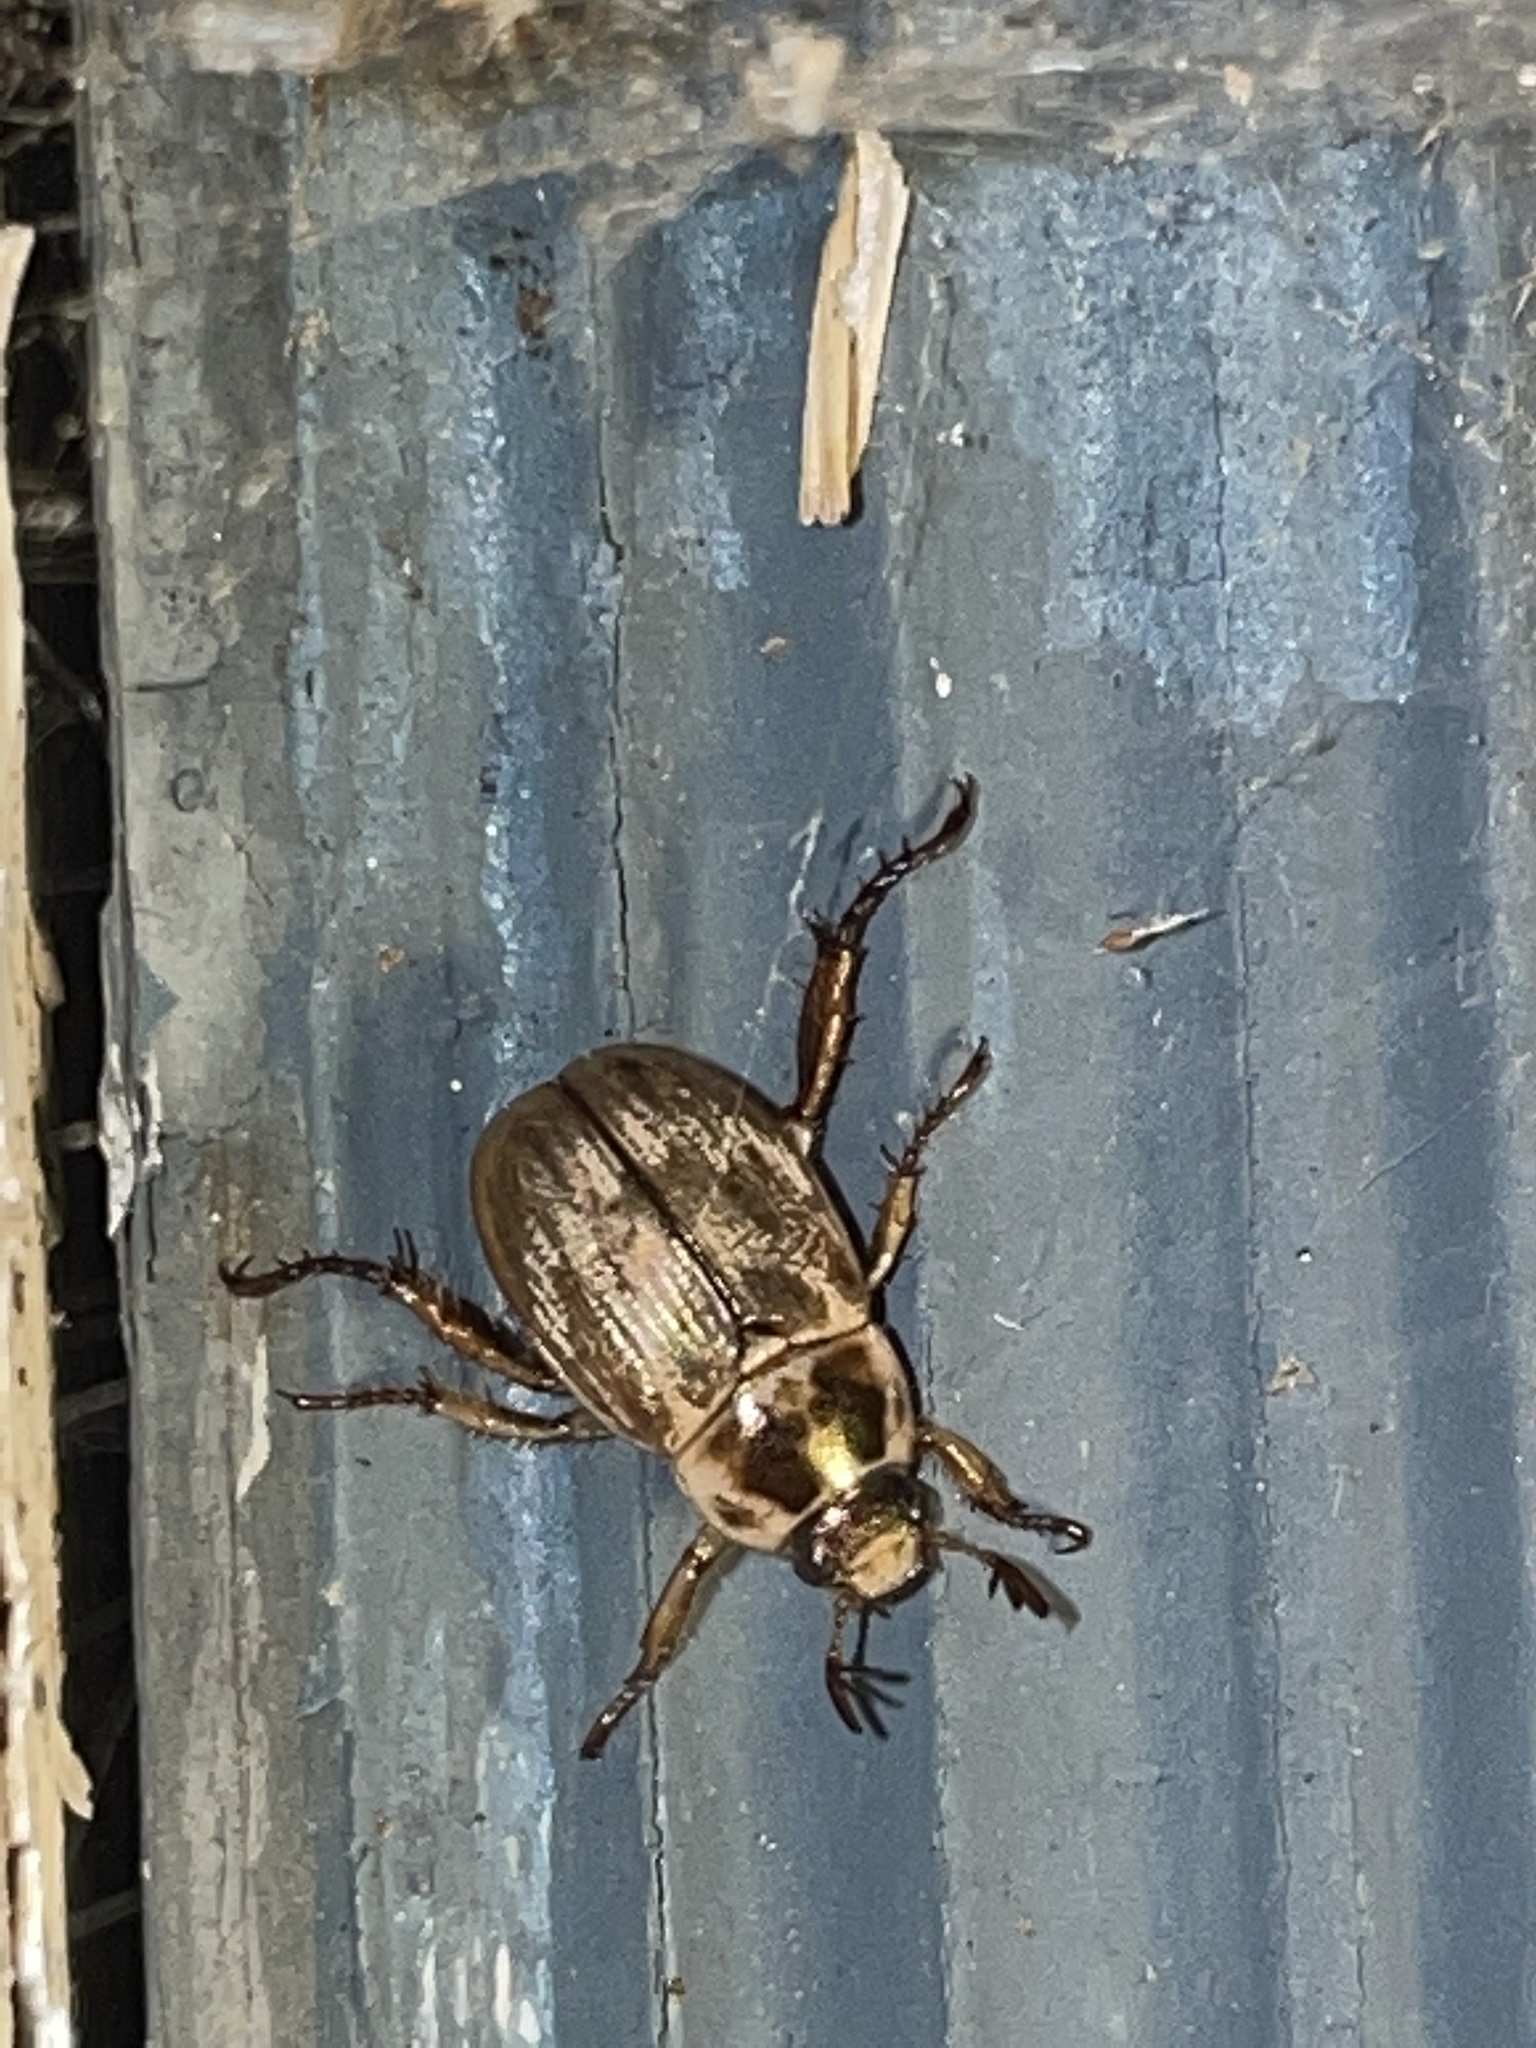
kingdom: Animalia
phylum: Arthropoda
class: Insecta
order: Coleoptera
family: Scarabaeidae
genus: Exomala
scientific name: Exomala orientalis
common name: Oriental beetle
